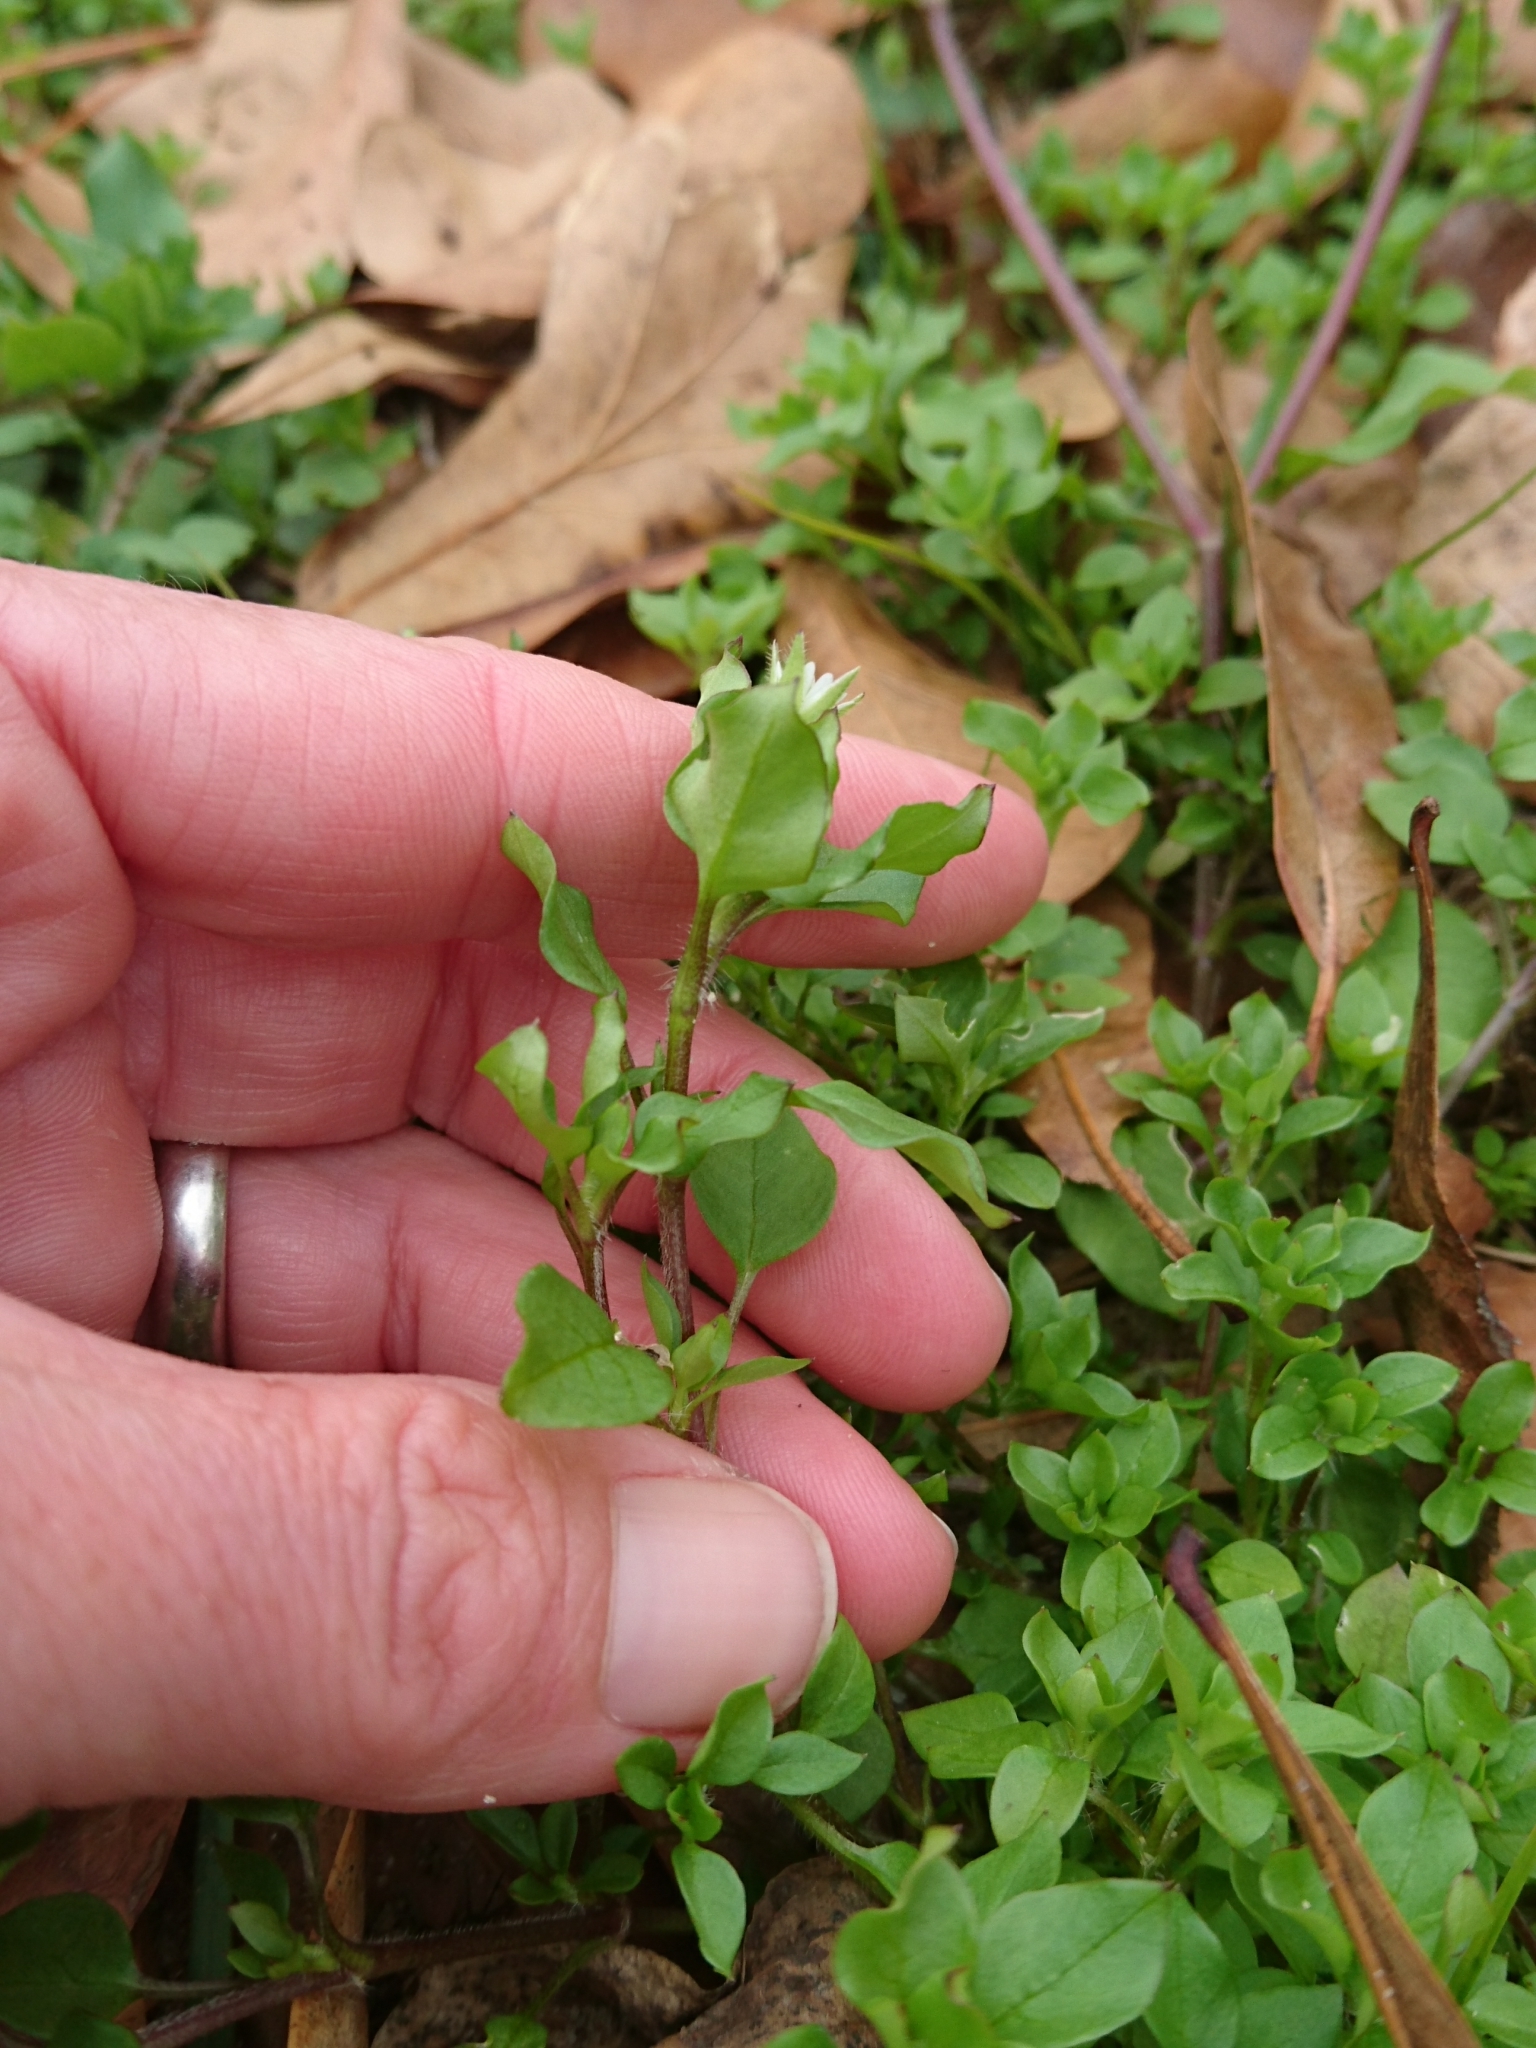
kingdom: Plantae
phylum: Tracheophyta
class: Magnoliopsida
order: Caryophyllales
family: Caryophyllaceae
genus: Stellaria
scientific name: Stellaria media
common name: Common chickweed
